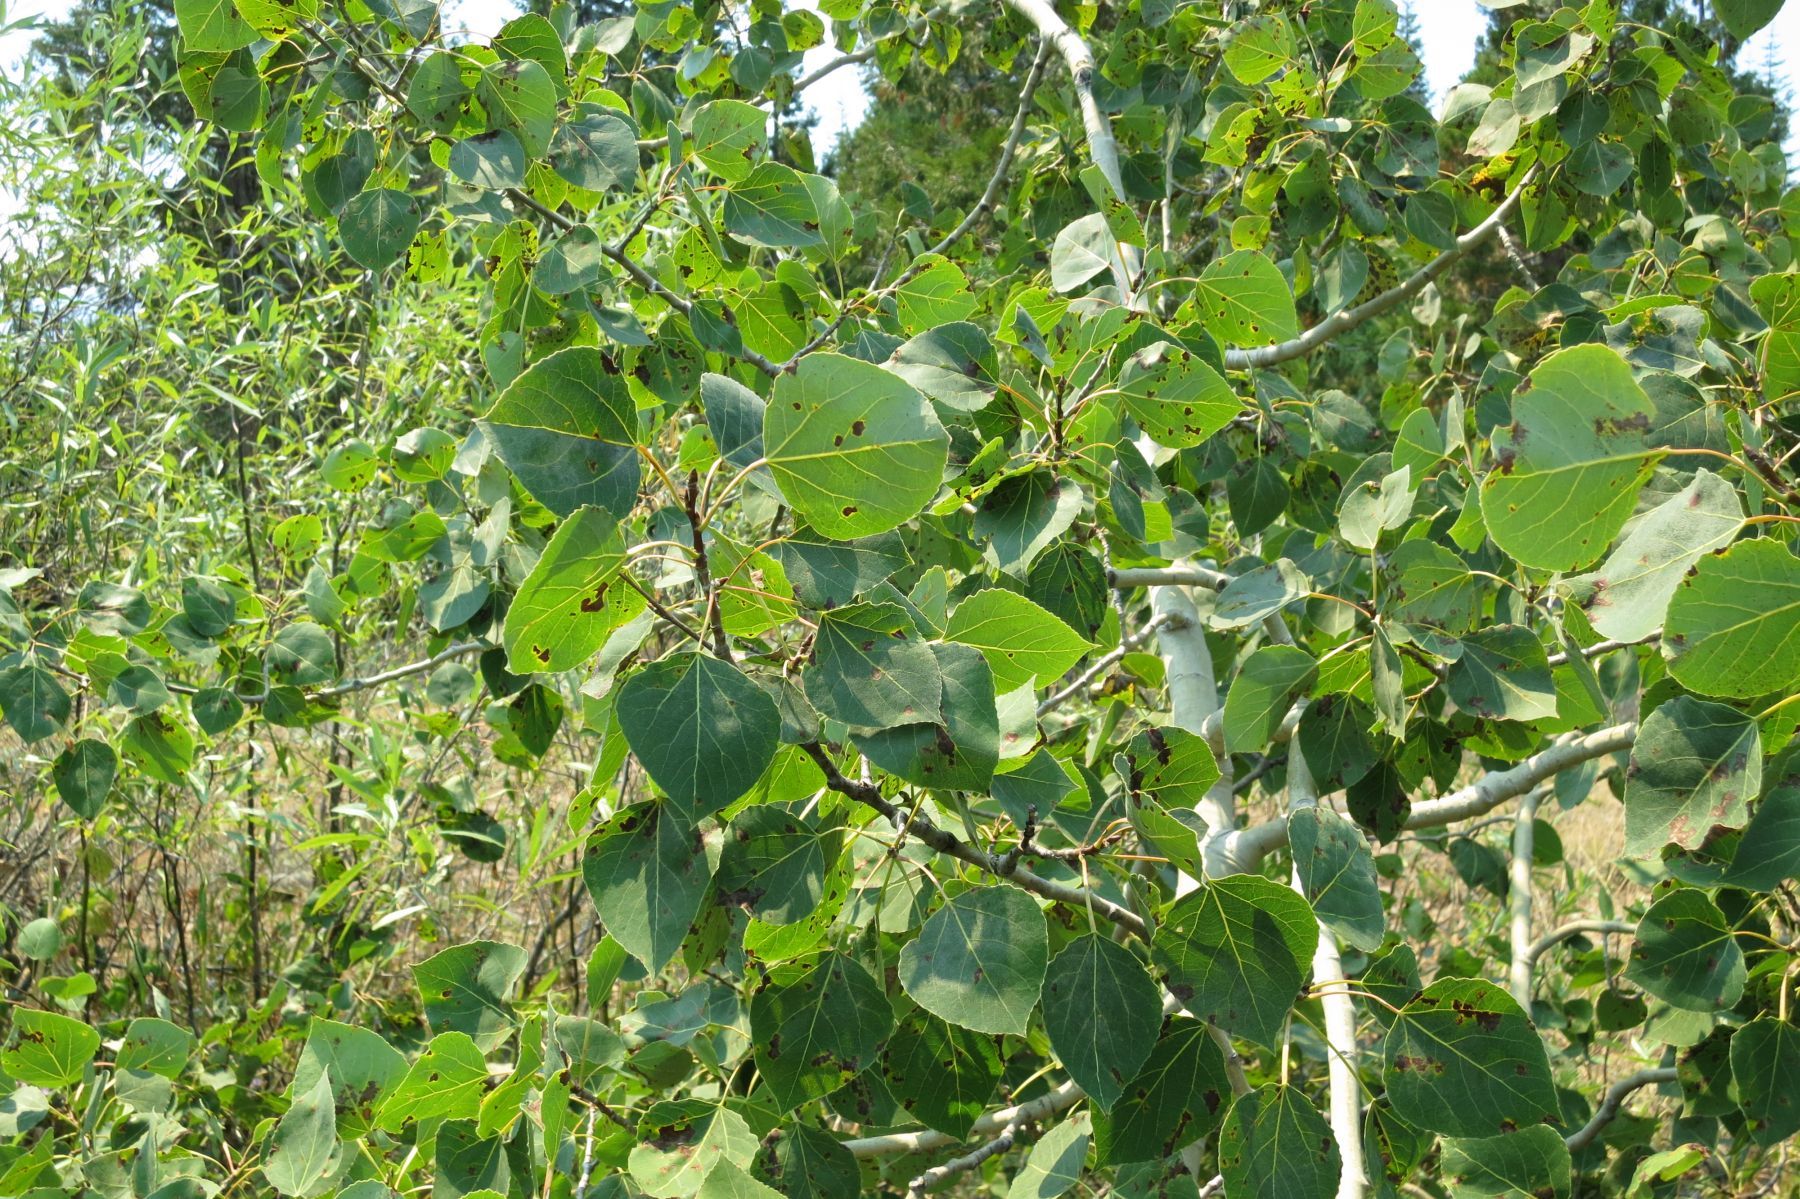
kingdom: Plantae
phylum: Tracheophyta
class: Magnoliopsida
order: Malpighiales
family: Salicaceae
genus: Populus
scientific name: Populus tremuloides
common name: Quaking aspen
